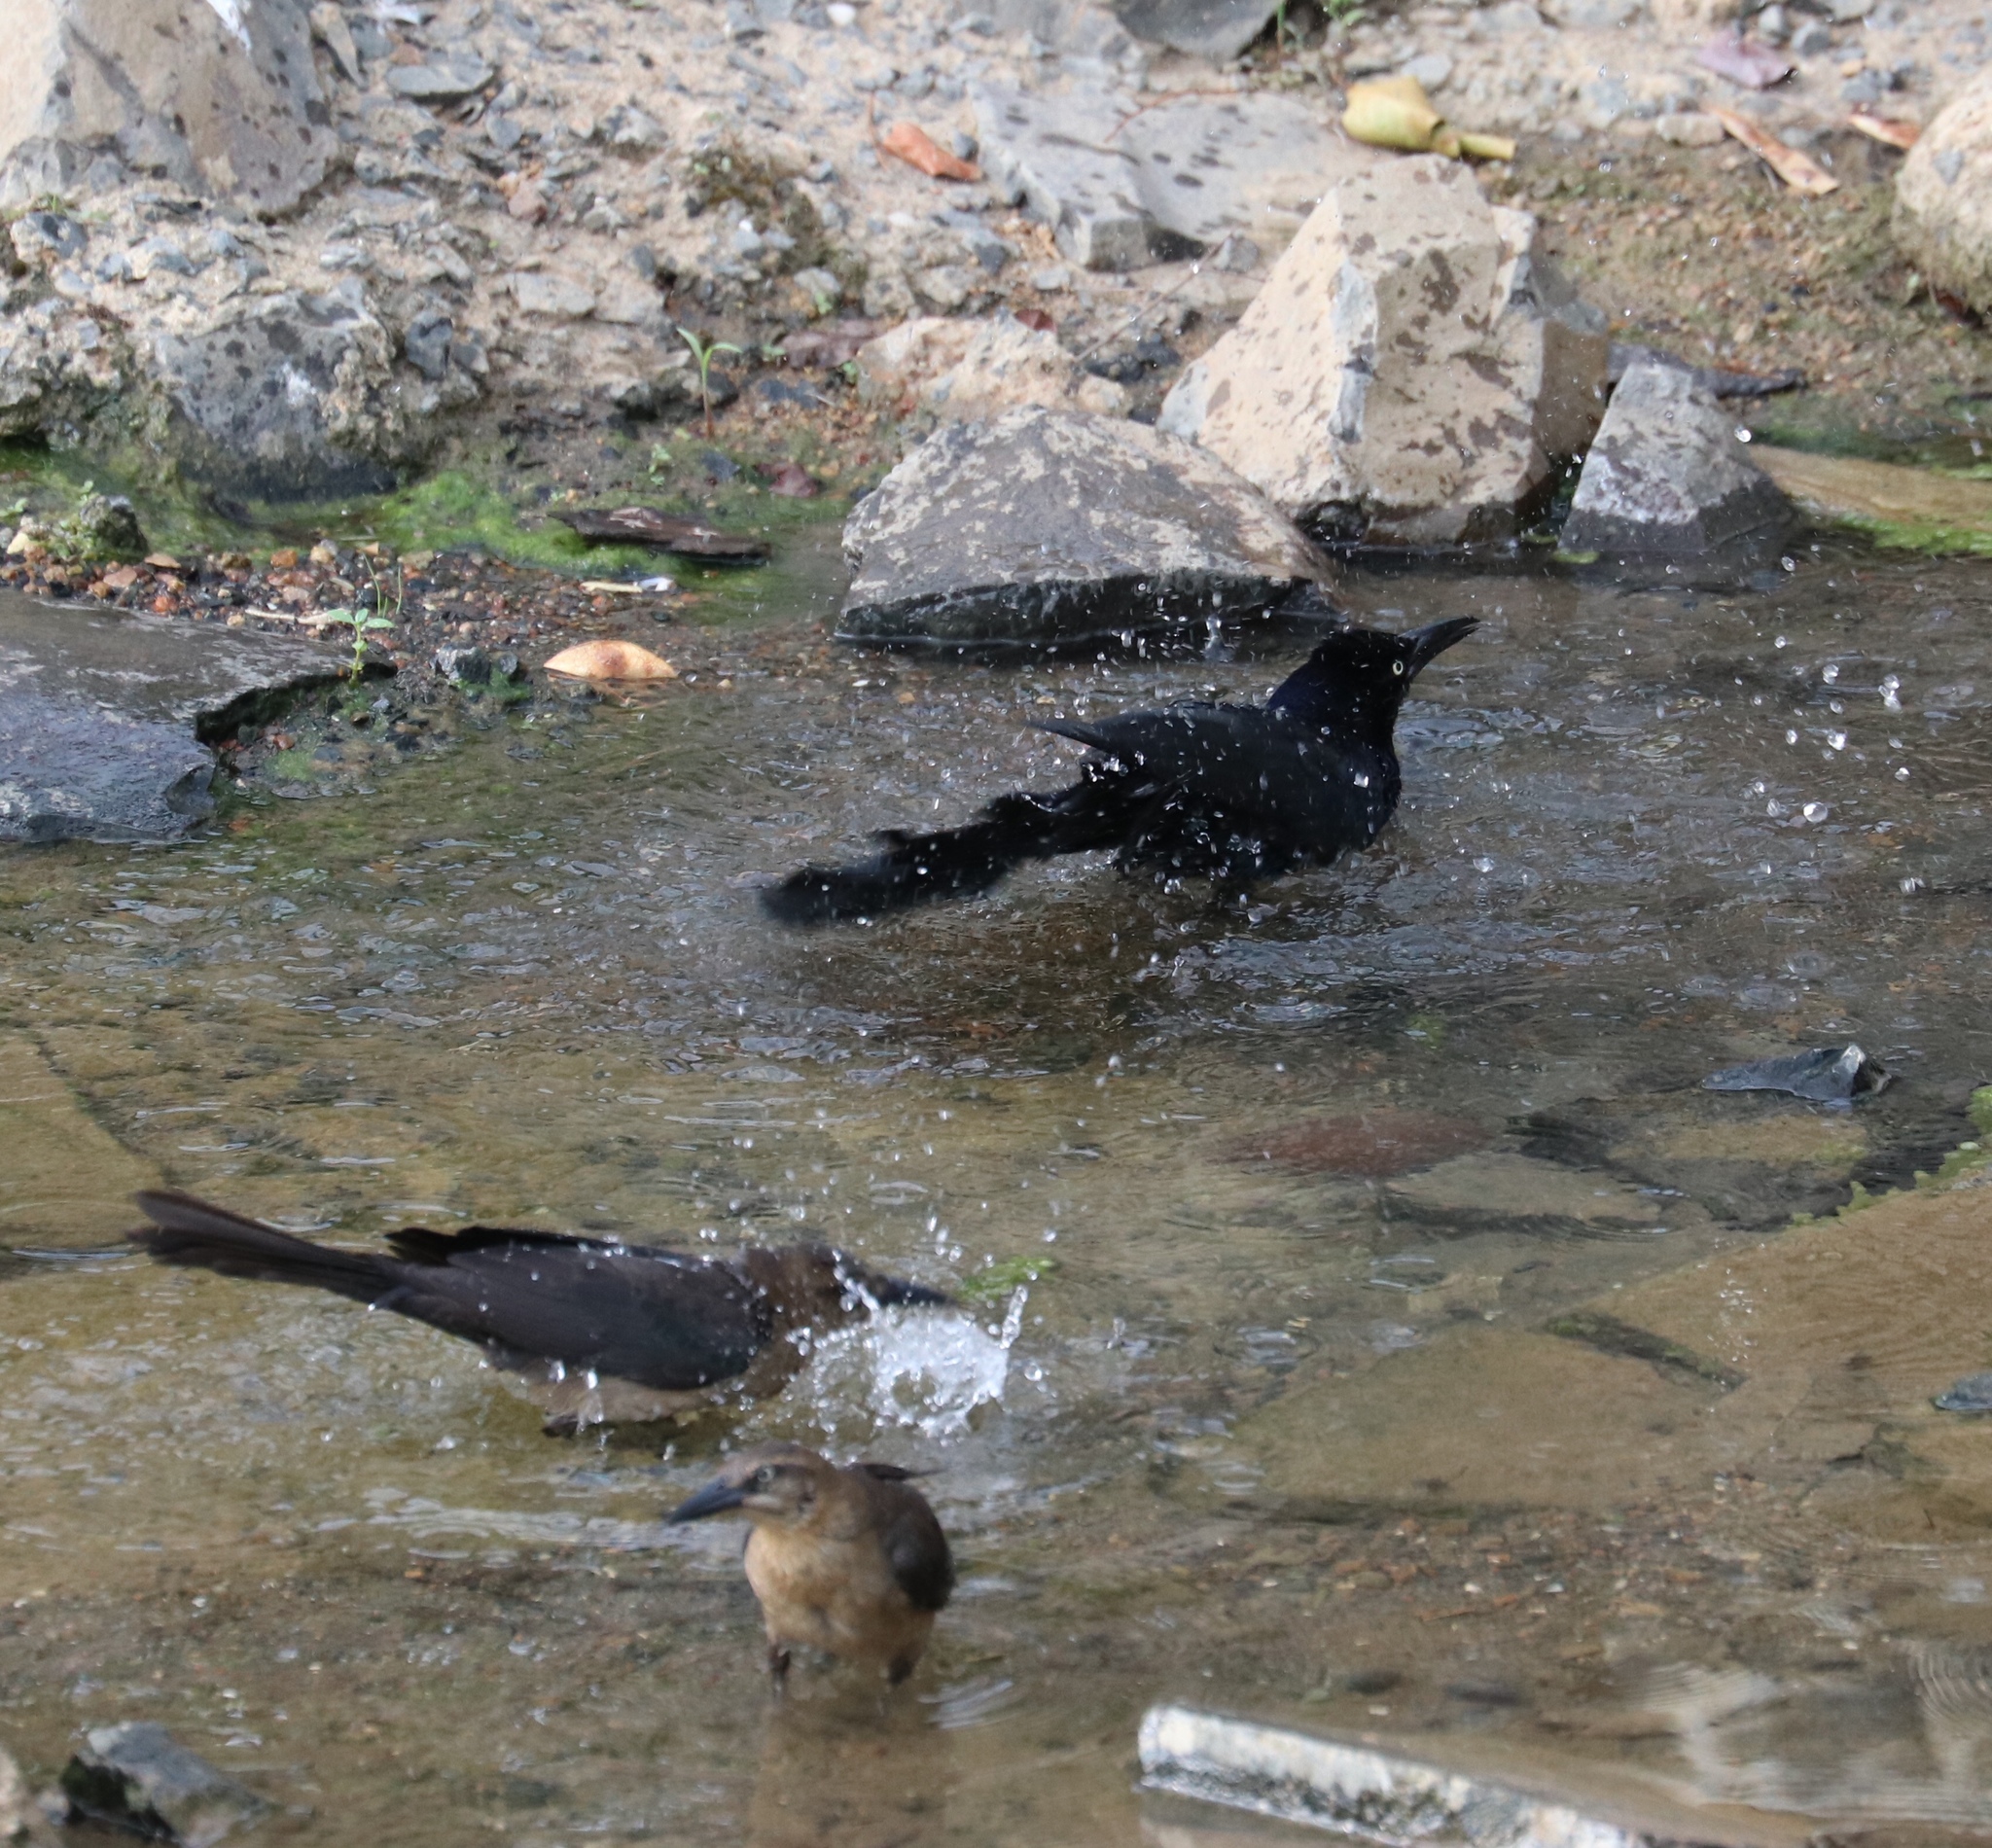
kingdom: Animalia
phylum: Chordata
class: Aves
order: Passeriformes
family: Icteridae
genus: Quiscalus
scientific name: Quiscalus mexicanus
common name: Great-tailed grackle
